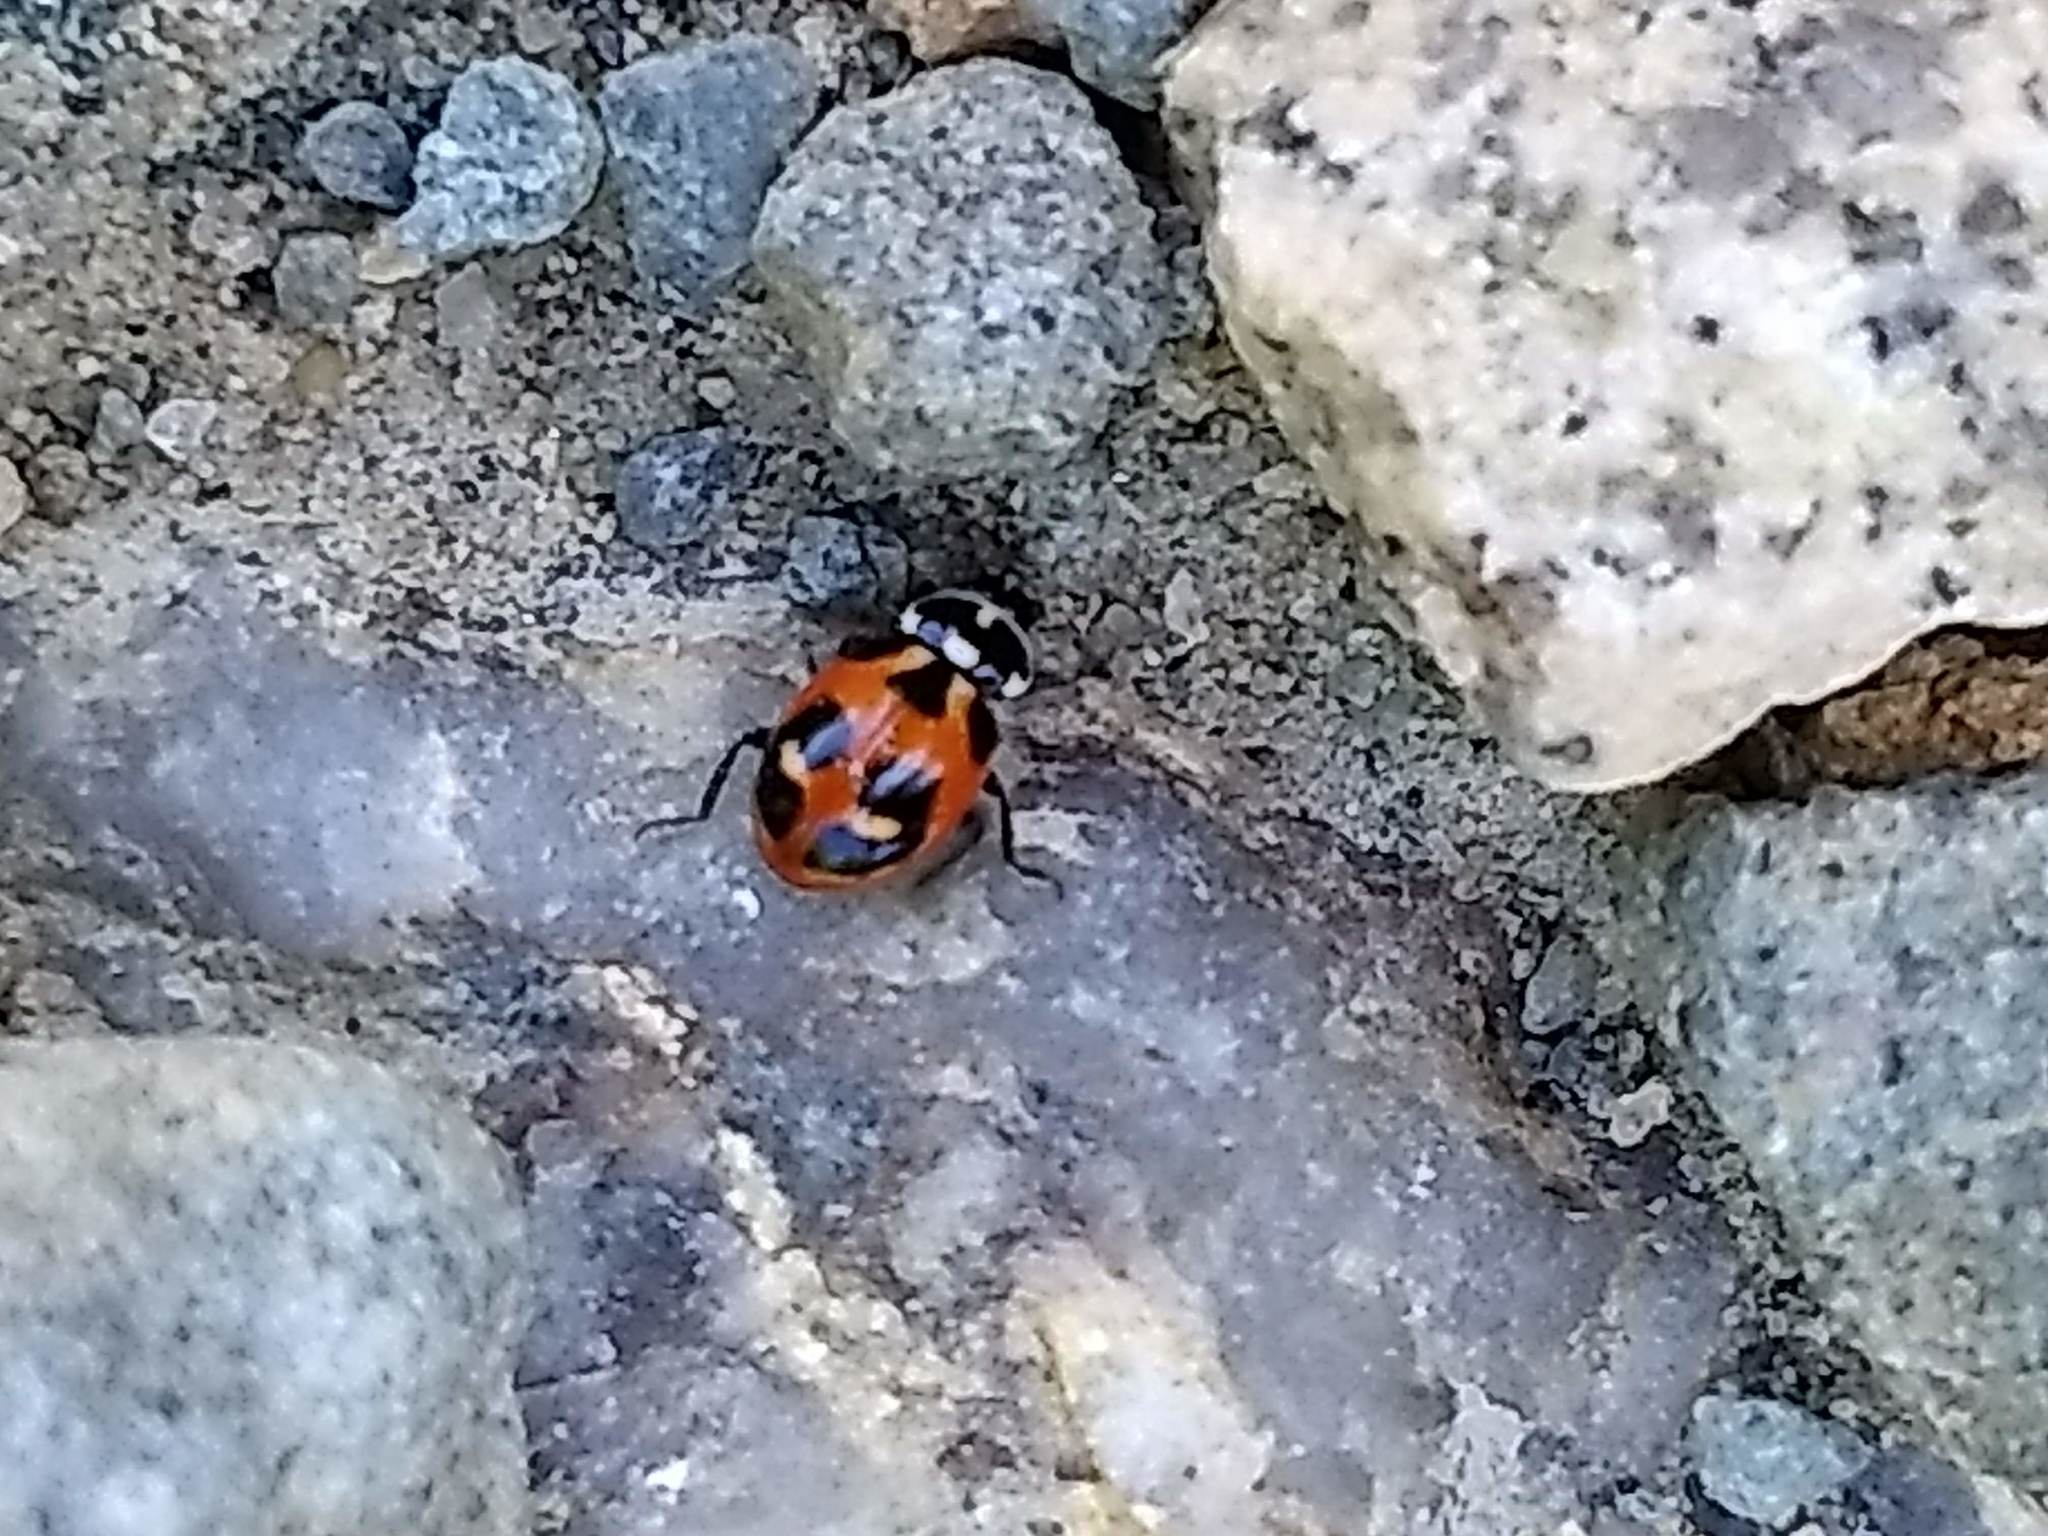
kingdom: Animalia
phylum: Arthropoda
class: Insecta
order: Coleoptera
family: Coccinellidae
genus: Hippodamia
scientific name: Hippodamia parenthesis
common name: Parenthesis lady beetle
